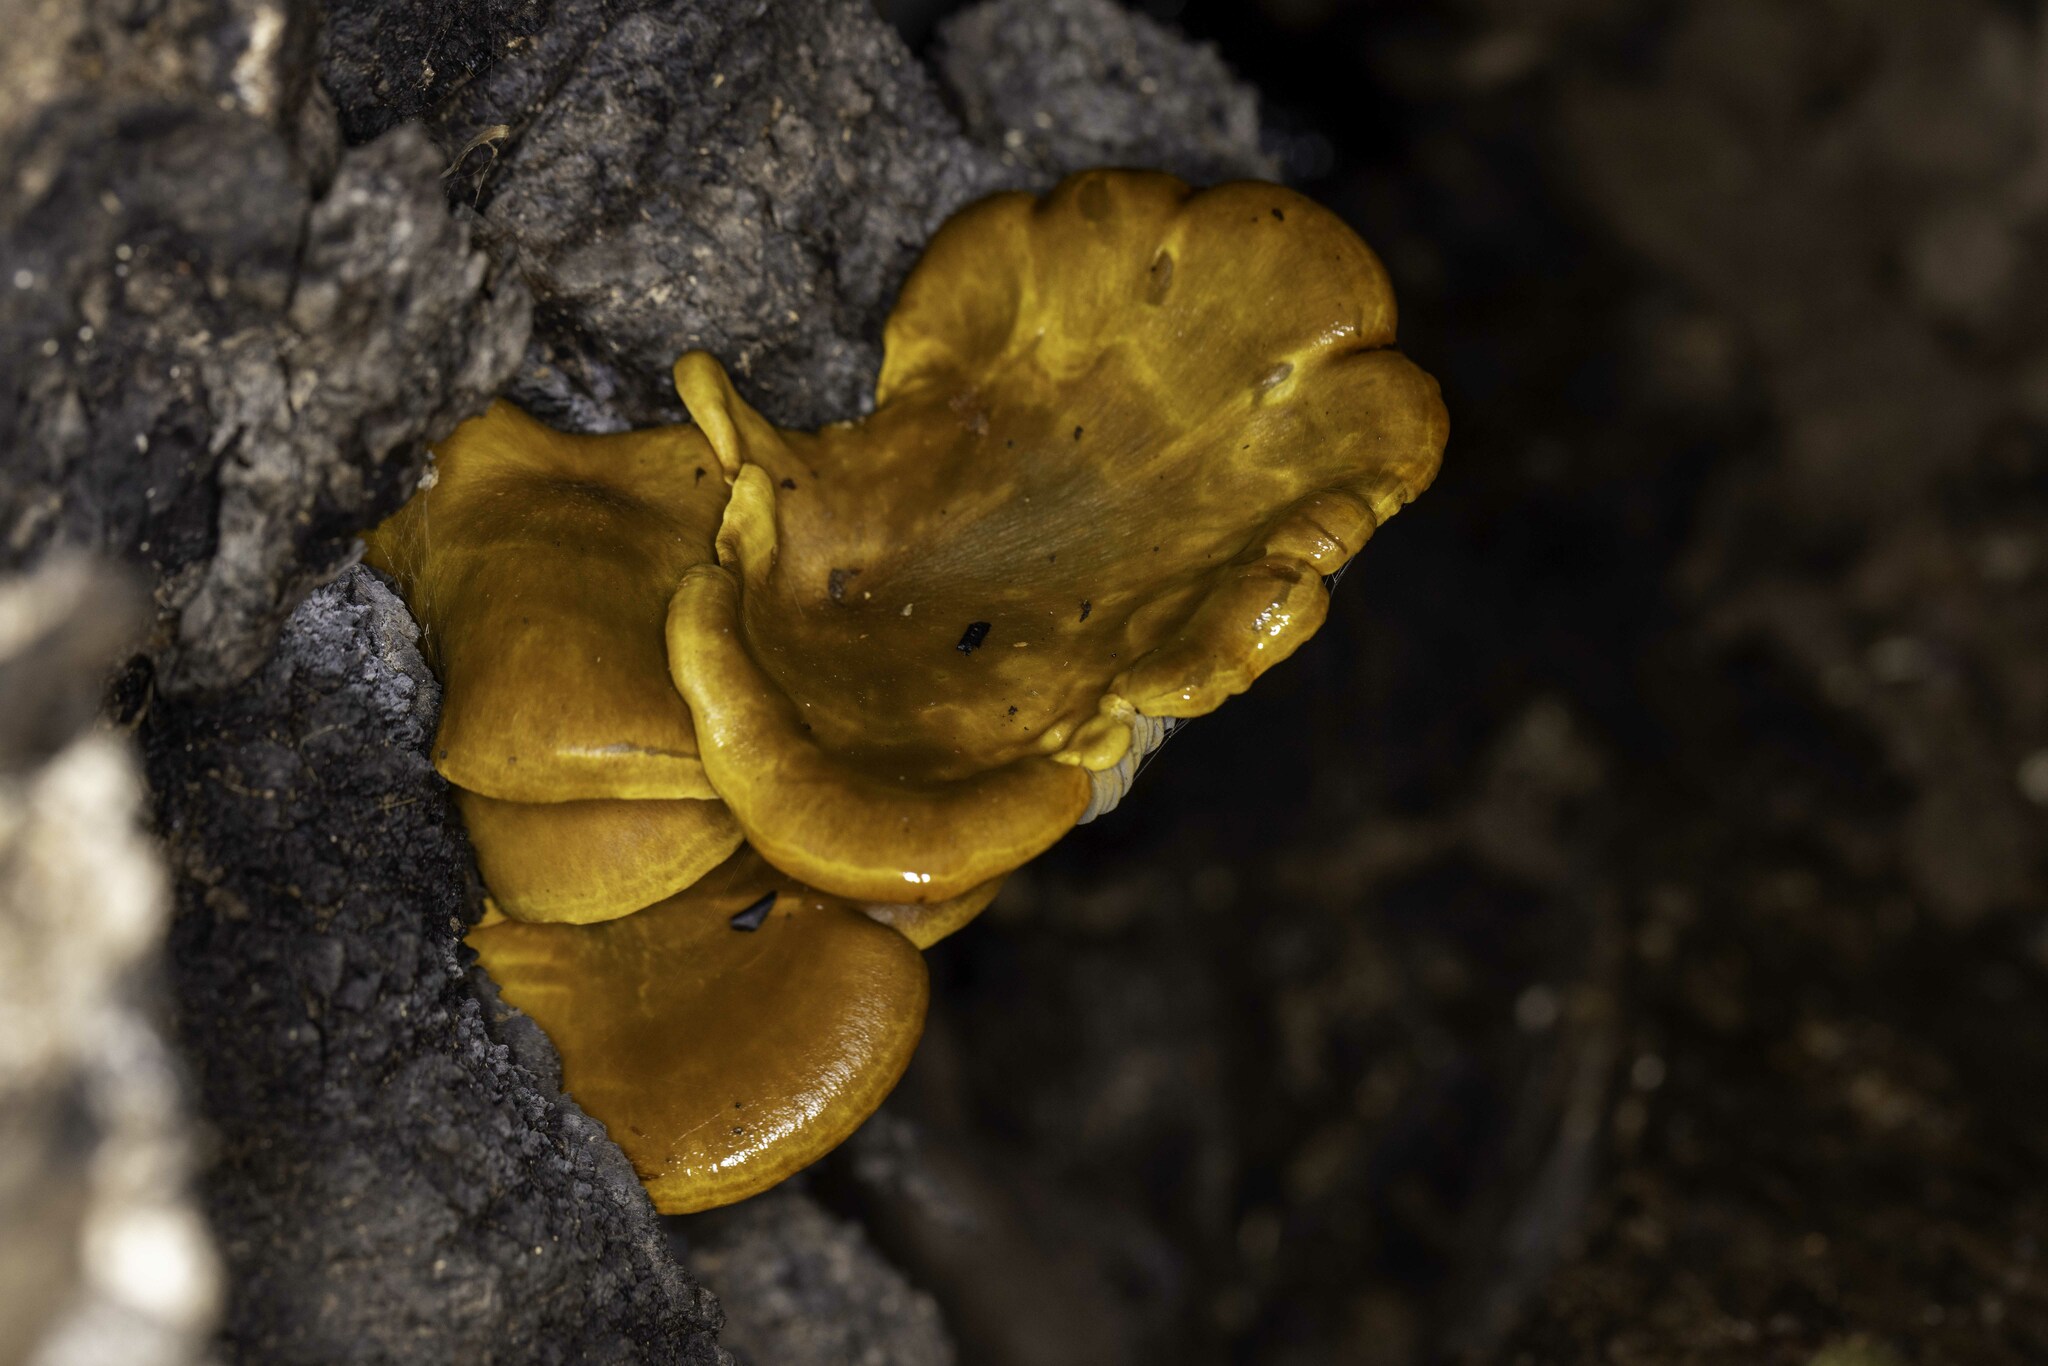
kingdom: Fungi
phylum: Basidiomycota
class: Agaricomycetes
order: Agaricales
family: Omphalotaceae
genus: Omphalotus
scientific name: Omphalotus olivascens
